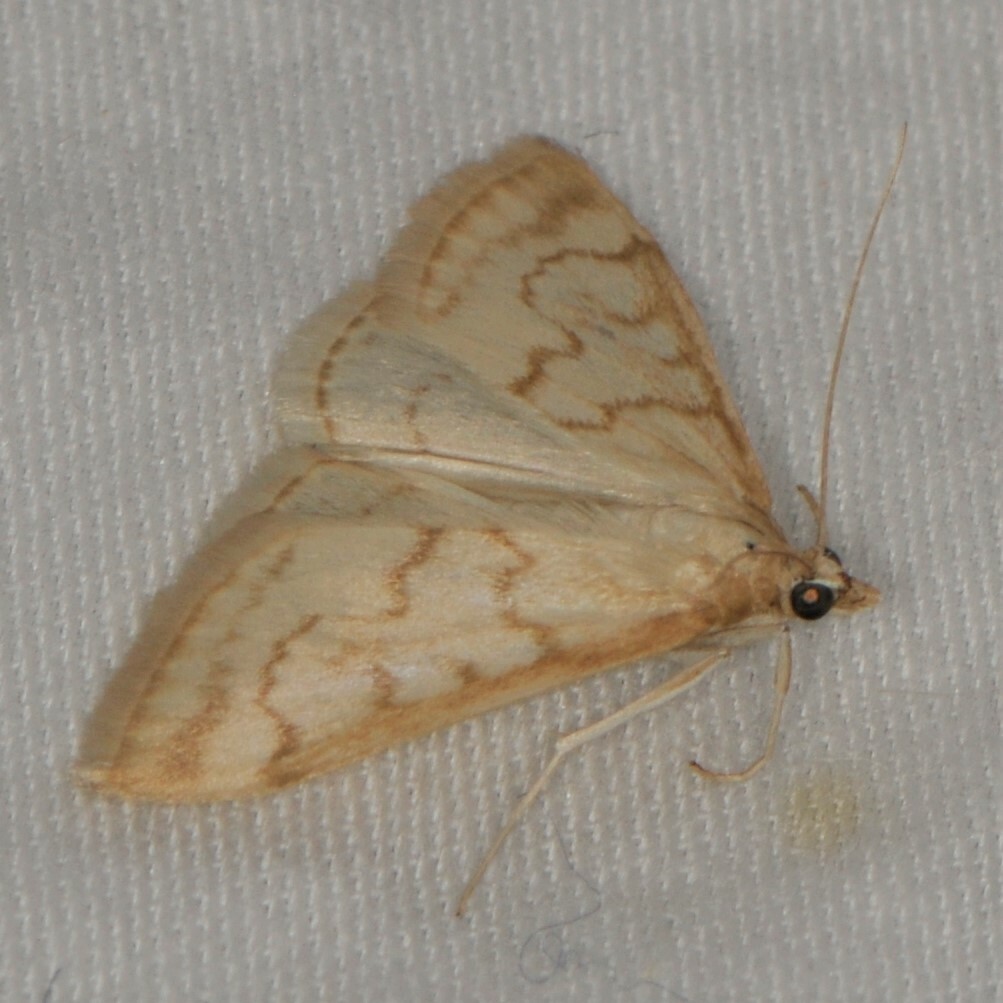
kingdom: Animalia
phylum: Arthropoda
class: Insecta
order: Lepidoptera
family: Crambidae
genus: Hahncappsia
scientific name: Hahncappsia pergilvalis
